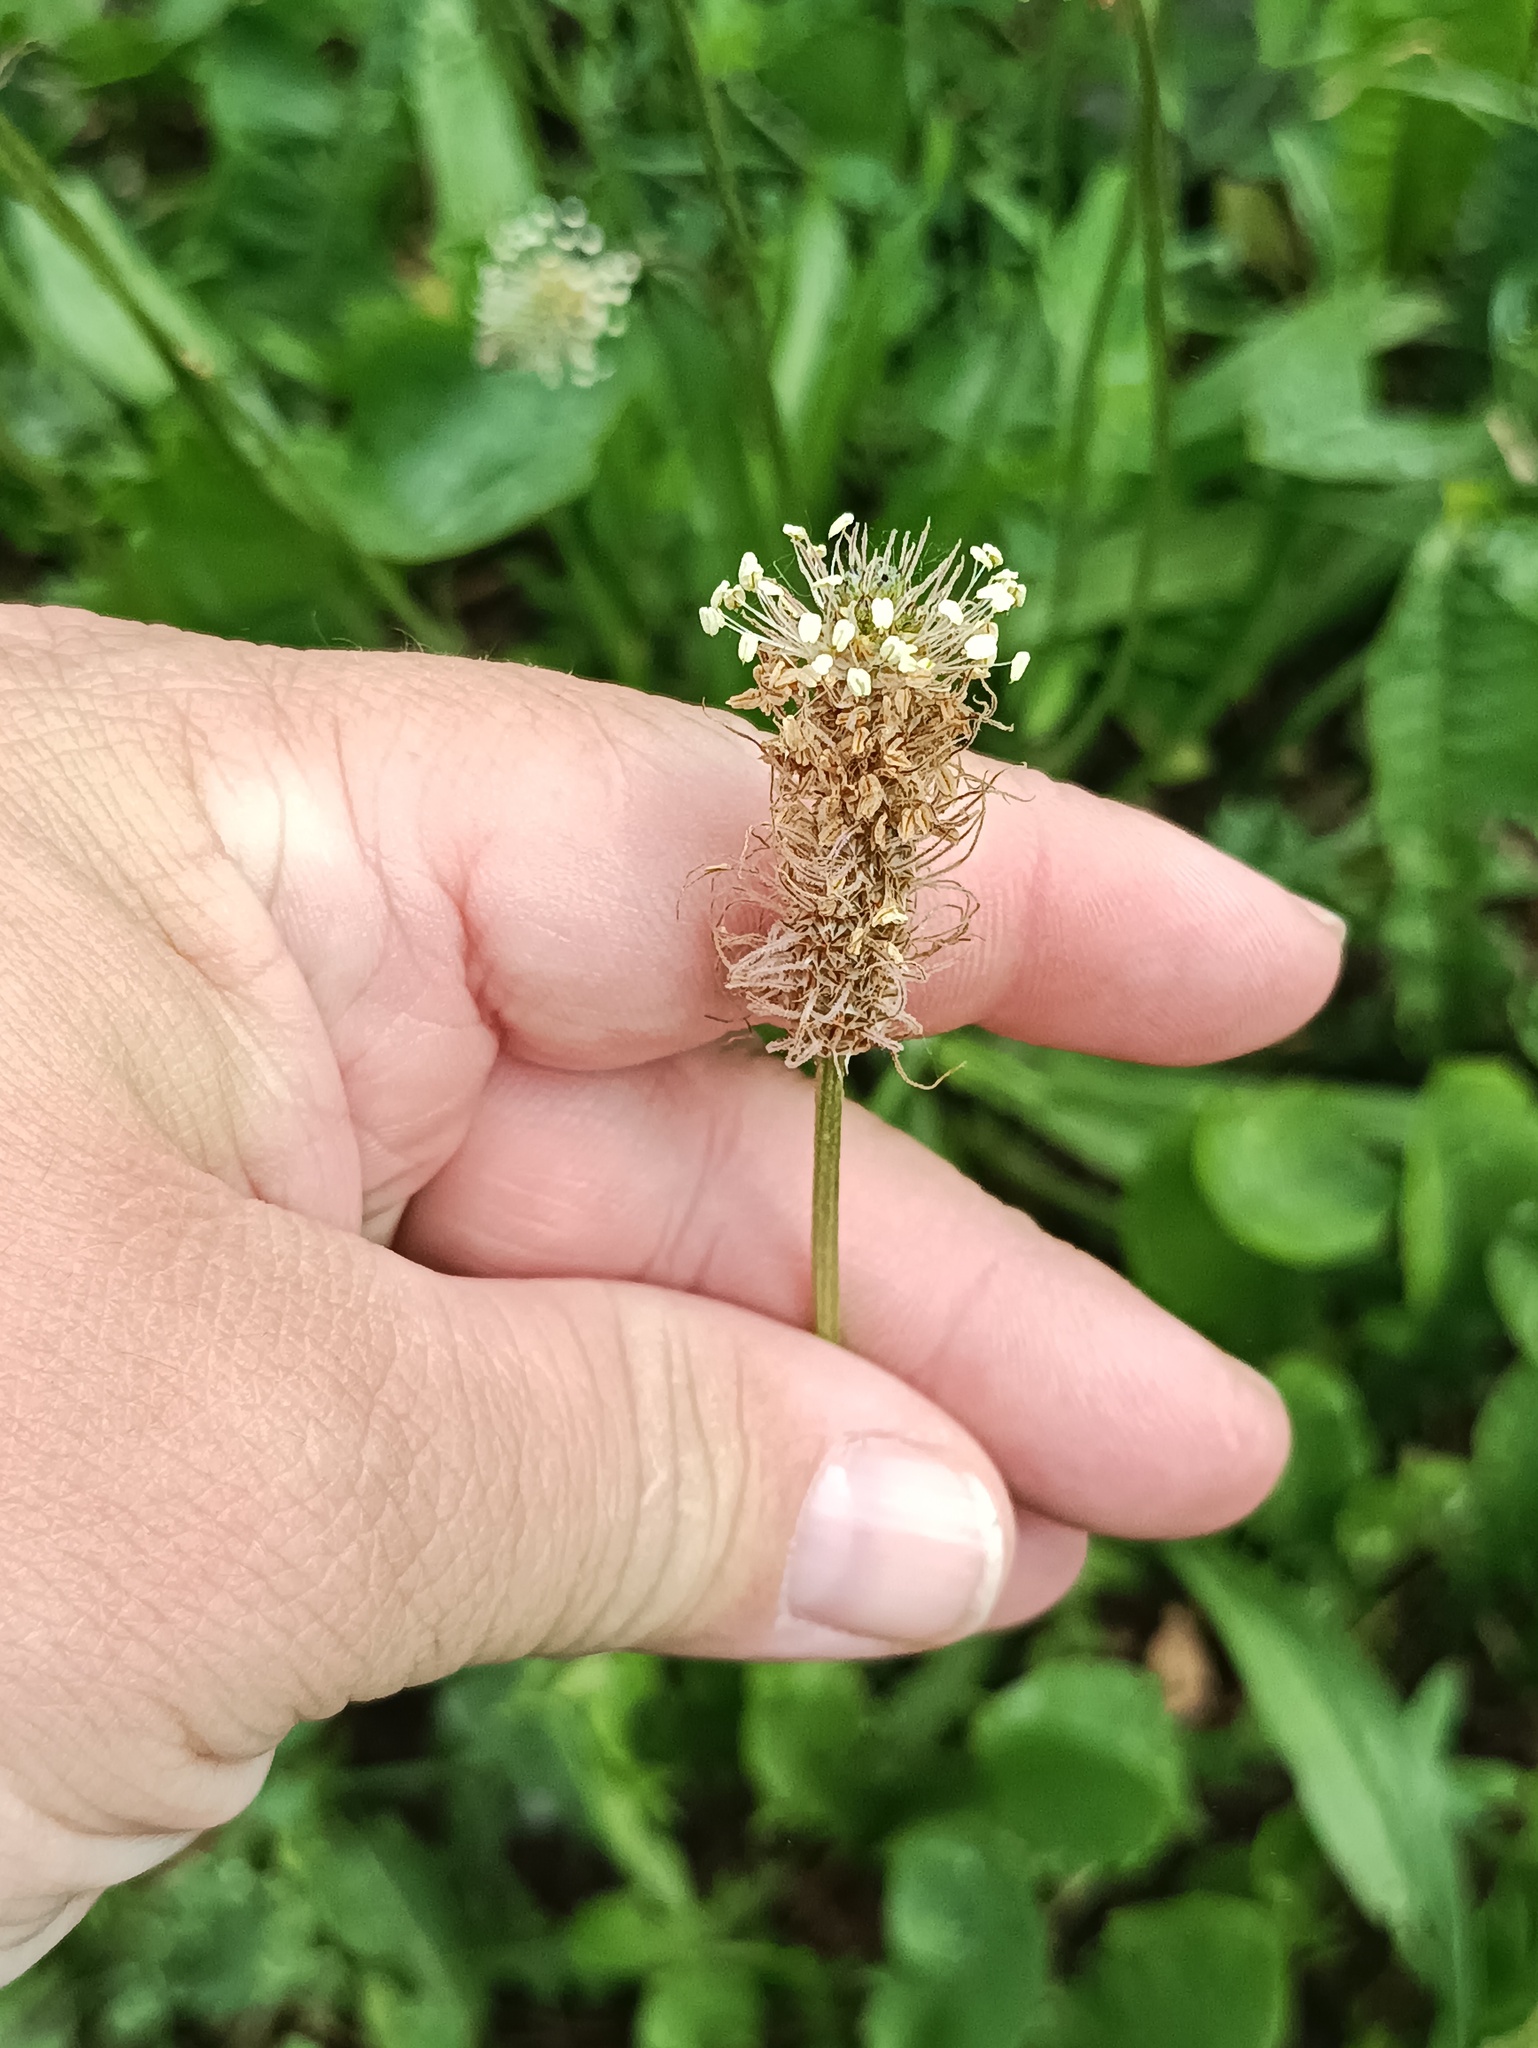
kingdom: Plantae
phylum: Tracheophyta
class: Magnoliopsida
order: Lamiales
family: Plantaginaceae
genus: Plantago
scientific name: Plantago lanceolata
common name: Ribwort plantain
